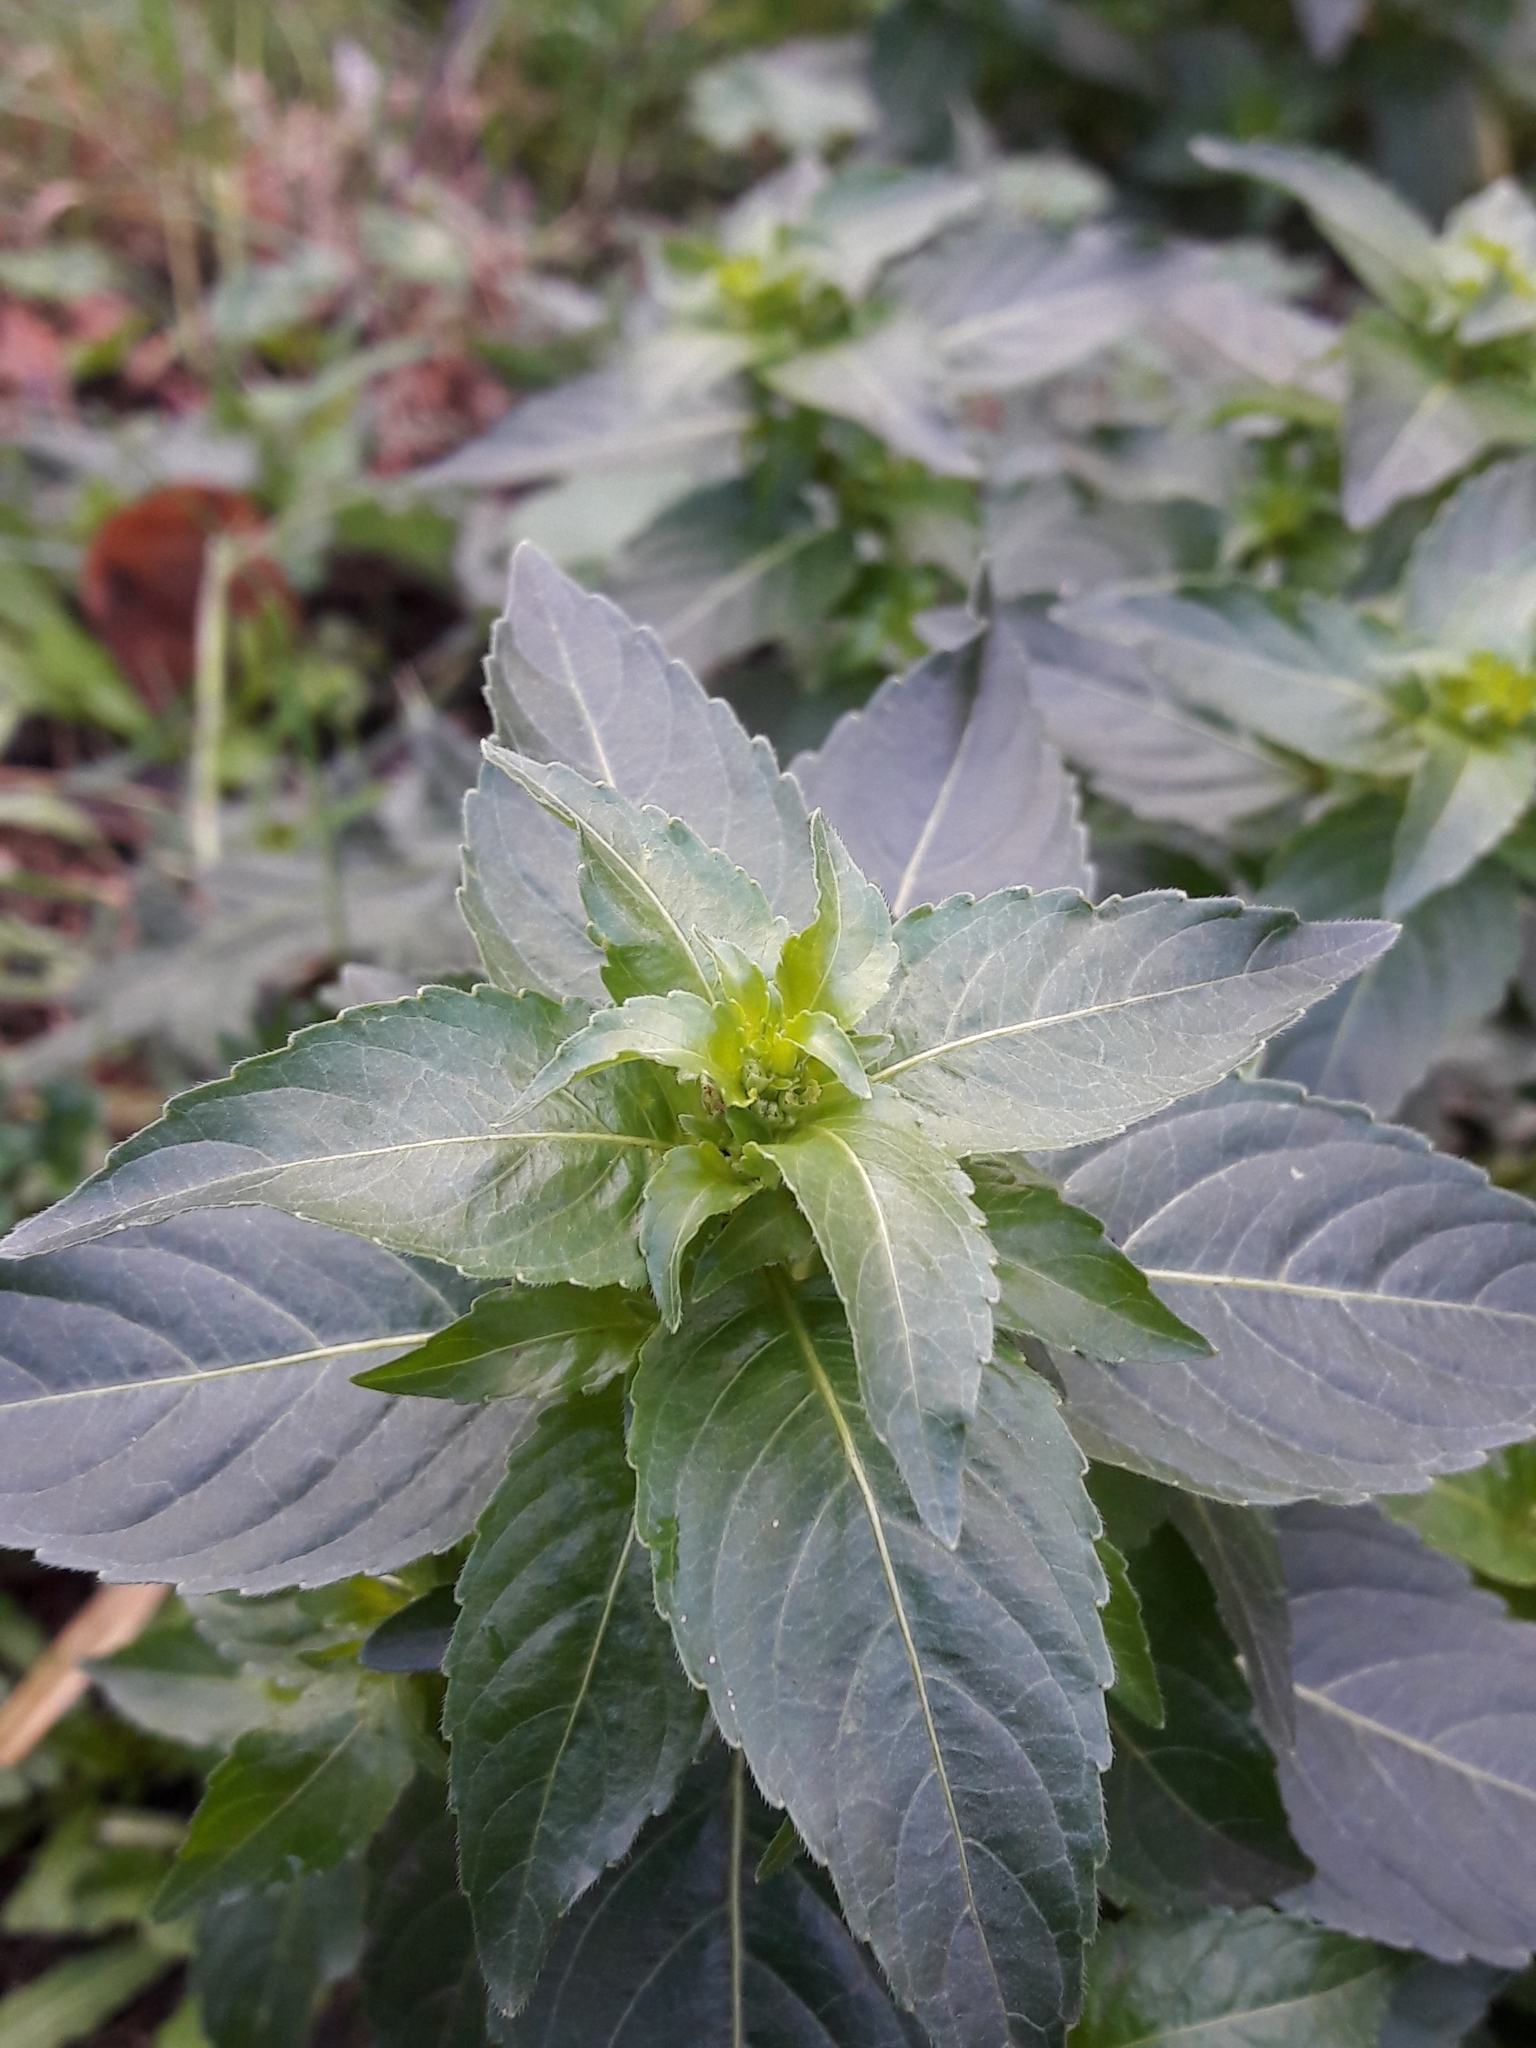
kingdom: Plantae
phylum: Tracheophyta
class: Magnoliopsida
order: Malpighiales
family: Euphorbiaceae
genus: Mercurialis
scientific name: Mercurialis annua
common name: Annual mercury
